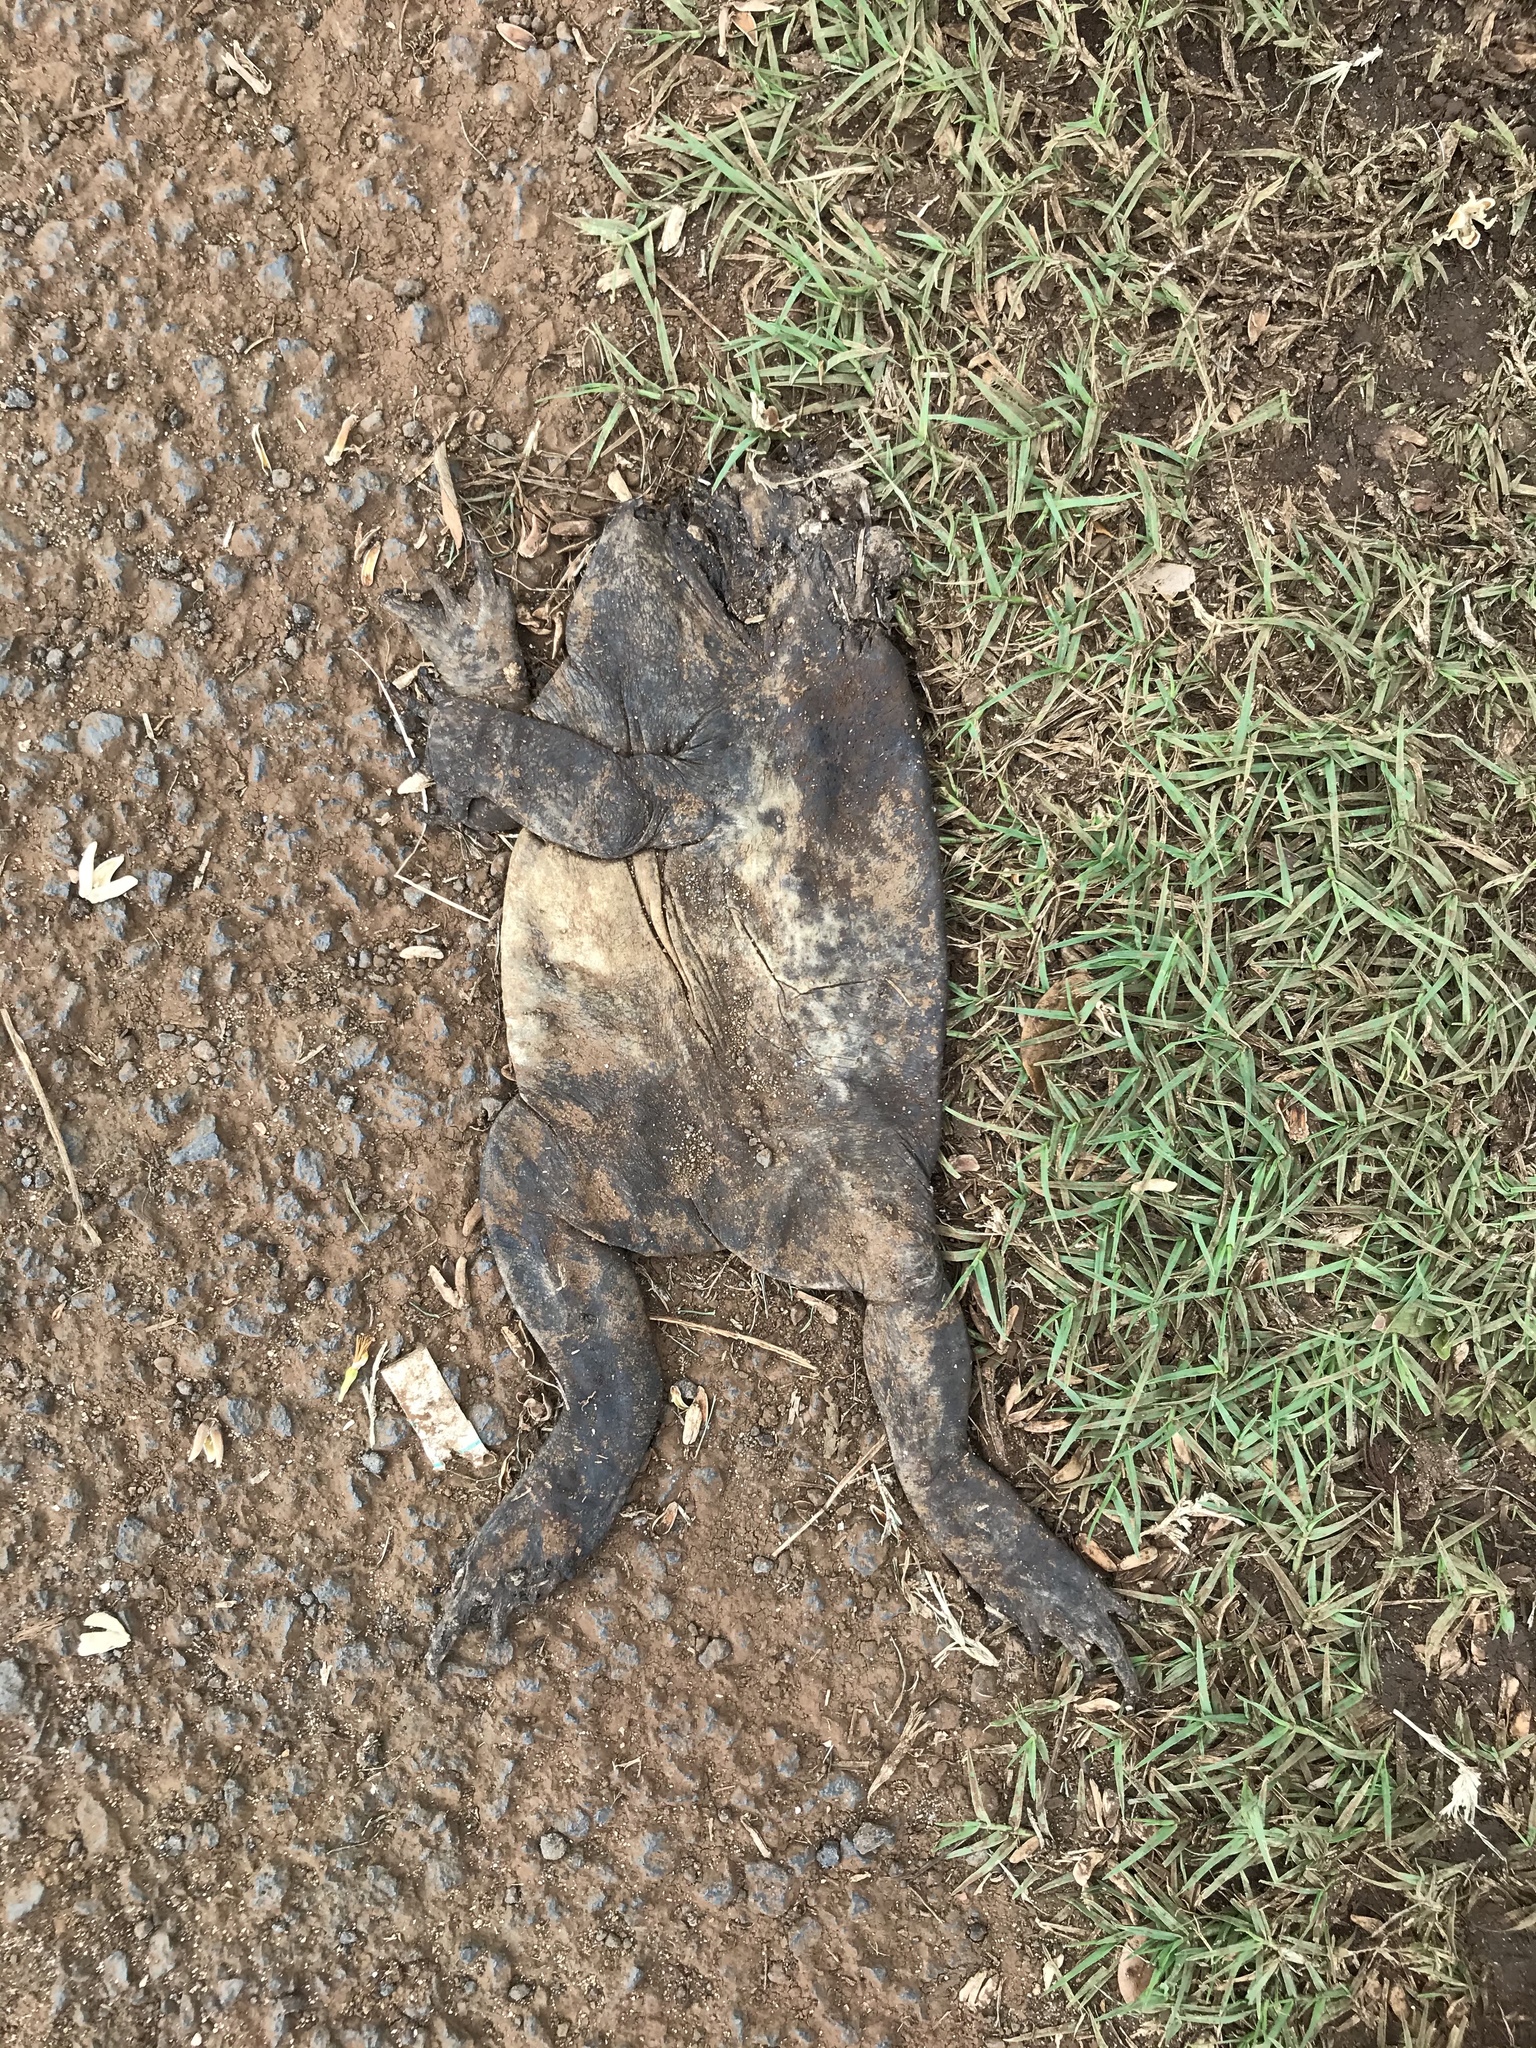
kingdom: Animalia
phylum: Chordata
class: Amphibia
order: Anura
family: Bufonidae
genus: Rhinella
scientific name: Rhinella marina
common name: Cane toad
